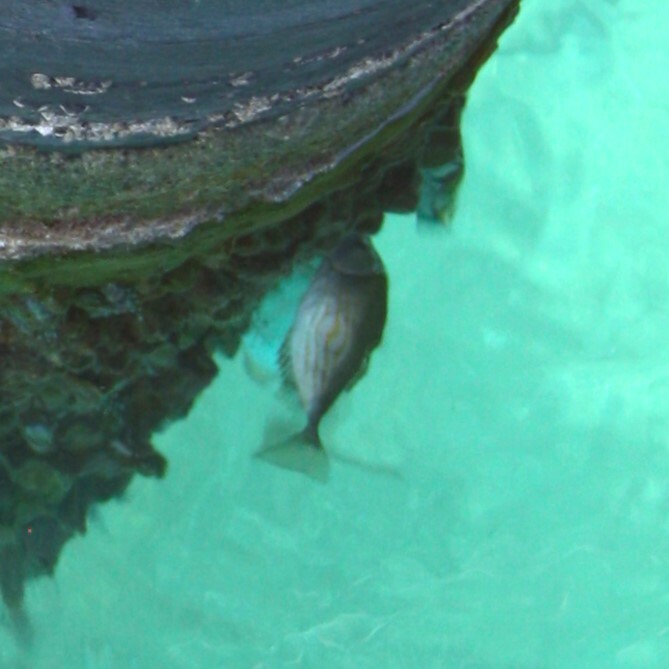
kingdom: Animalia
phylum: Chordata
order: Perciformes
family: Siganidae
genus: Siganus
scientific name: Siganus rivulatus
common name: Marbled spinefoot
